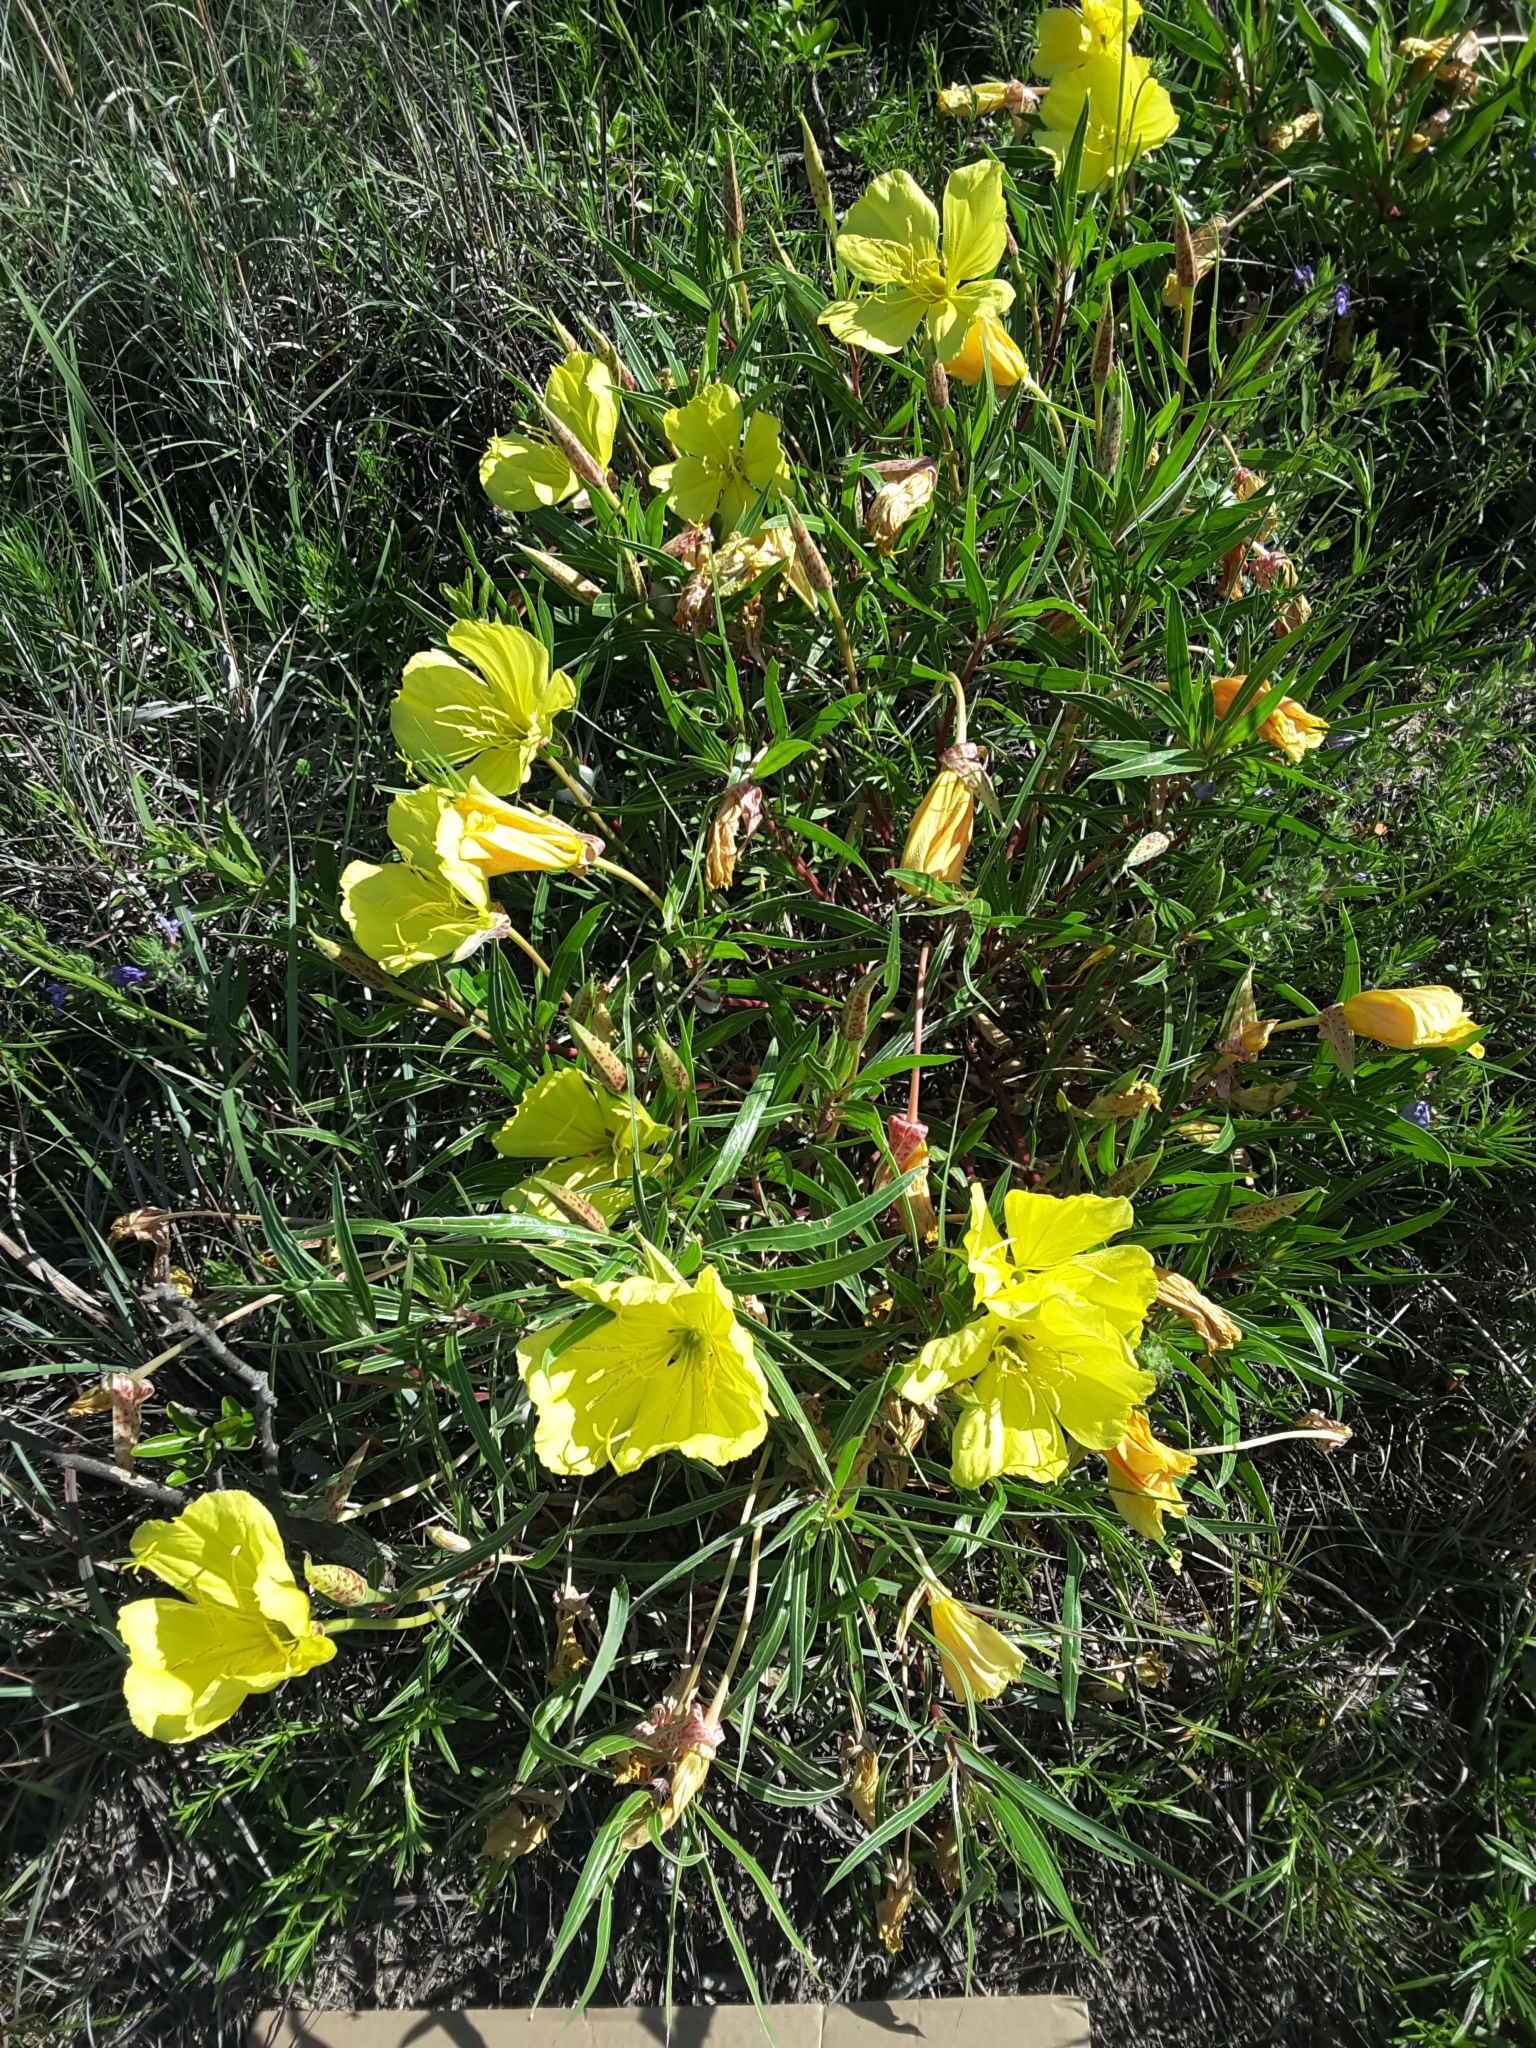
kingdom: Plantae
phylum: Tracheophyta
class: Magnoliopsida
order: Myrtales
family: Onagraceae
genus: Oenothera
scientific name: Oenothera macrocarpa
